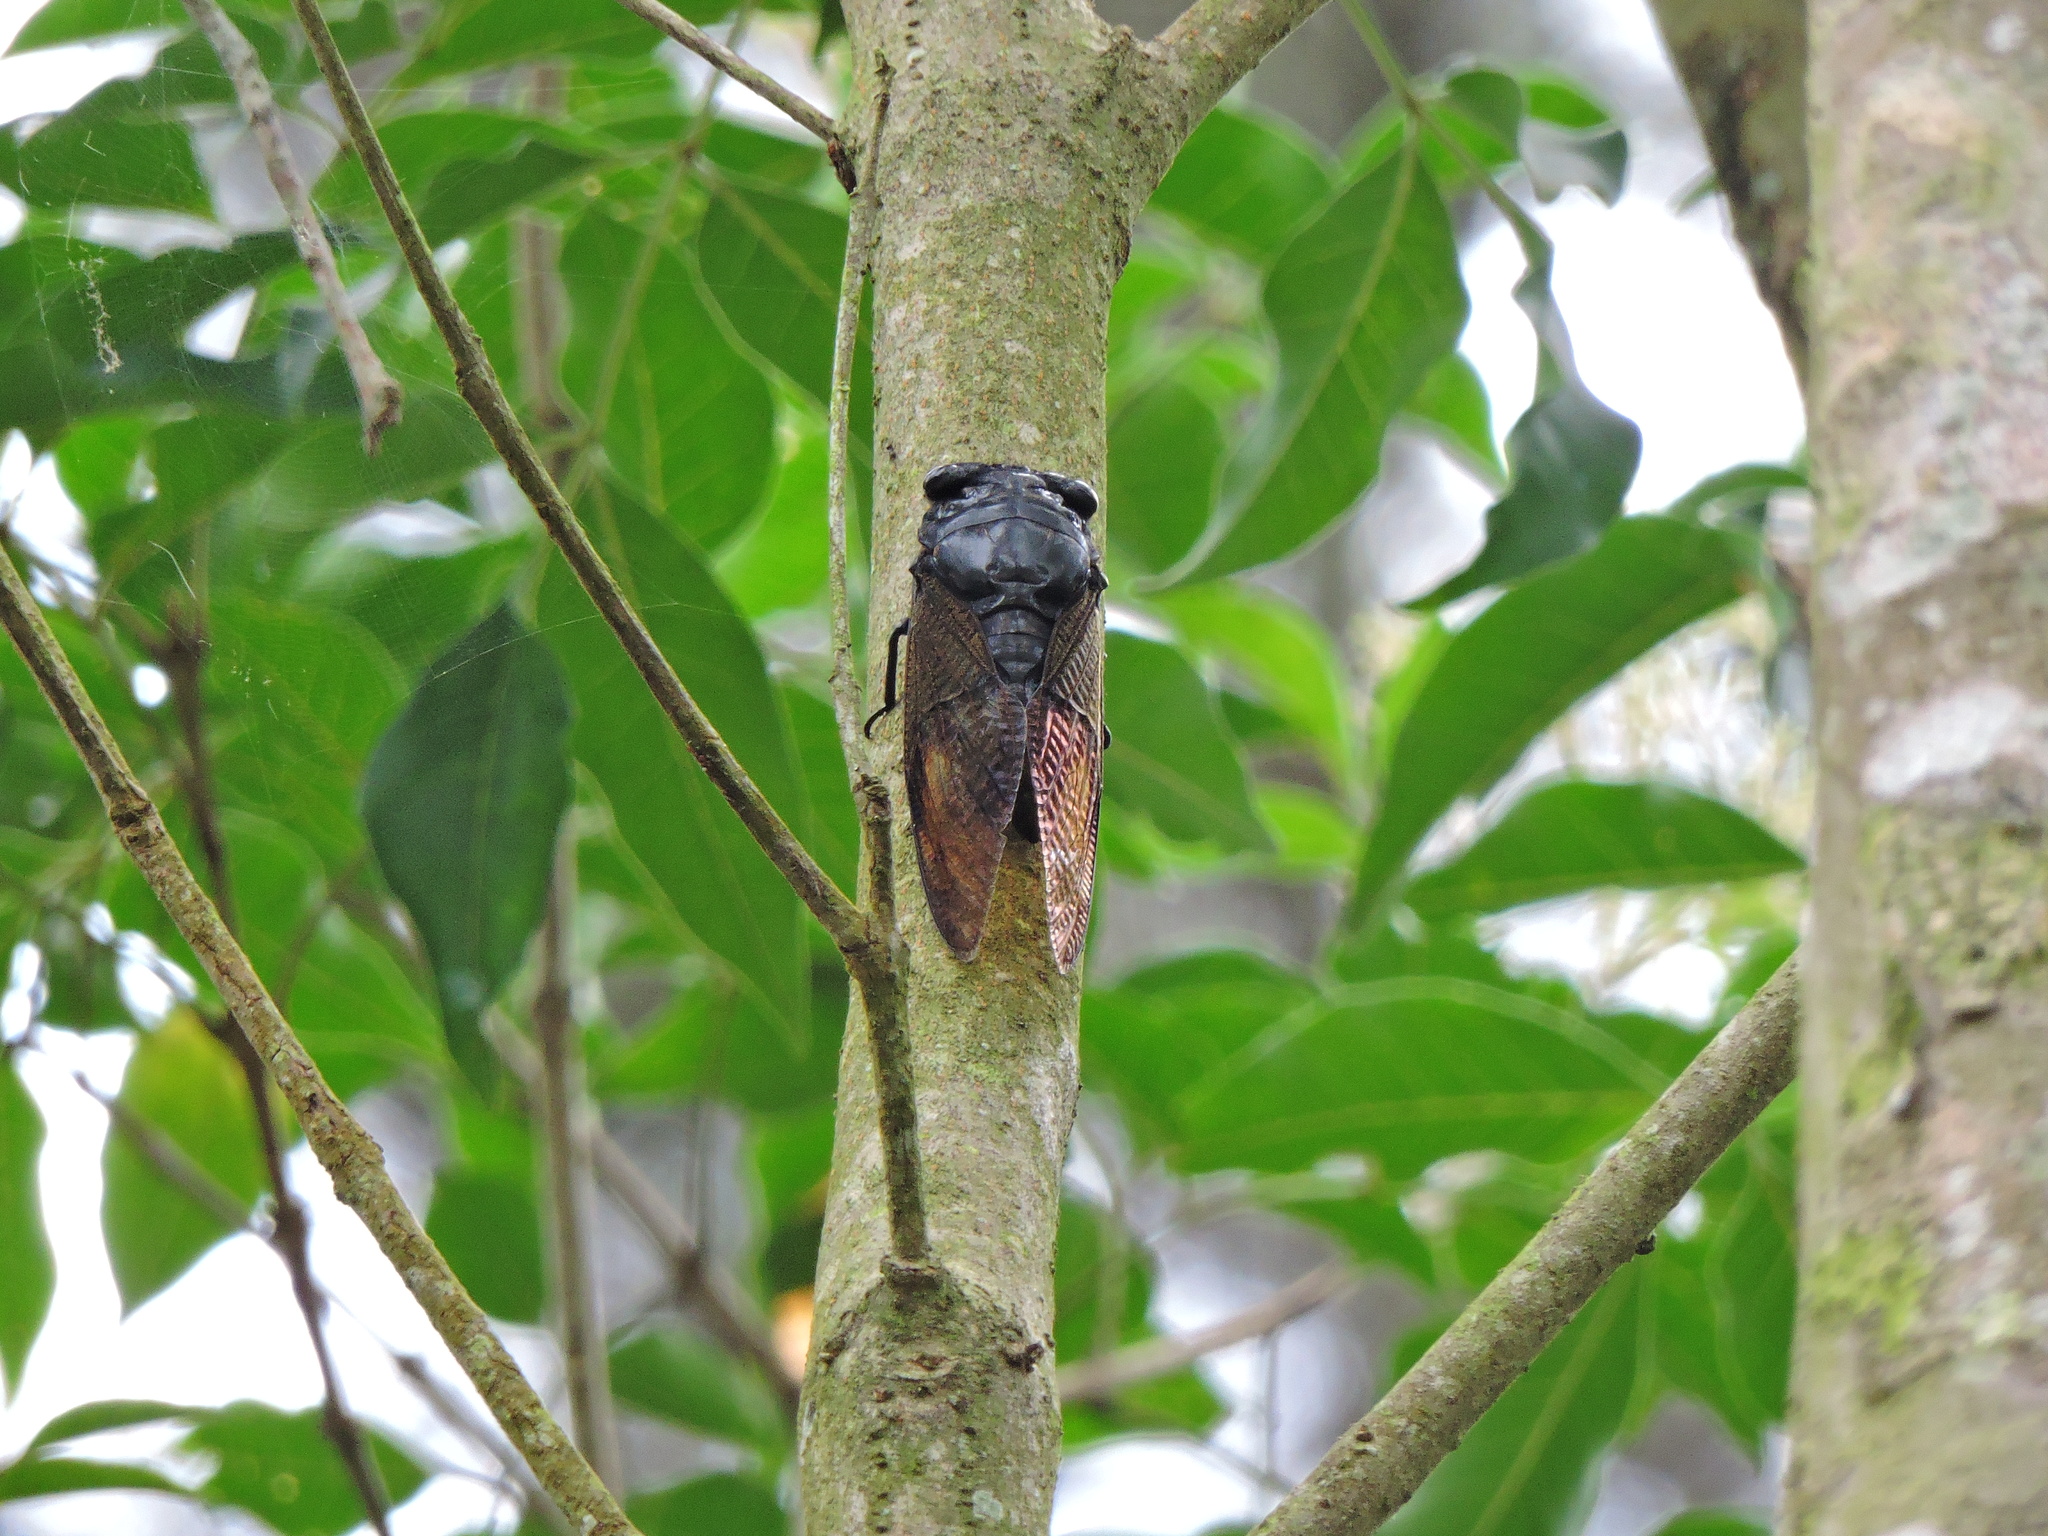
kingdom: Animalia
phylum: Arthropoda
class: Insecta
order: Hemiptera
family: Cicadidae
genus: Cryptotympana
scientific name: Cryptotympana holsti
